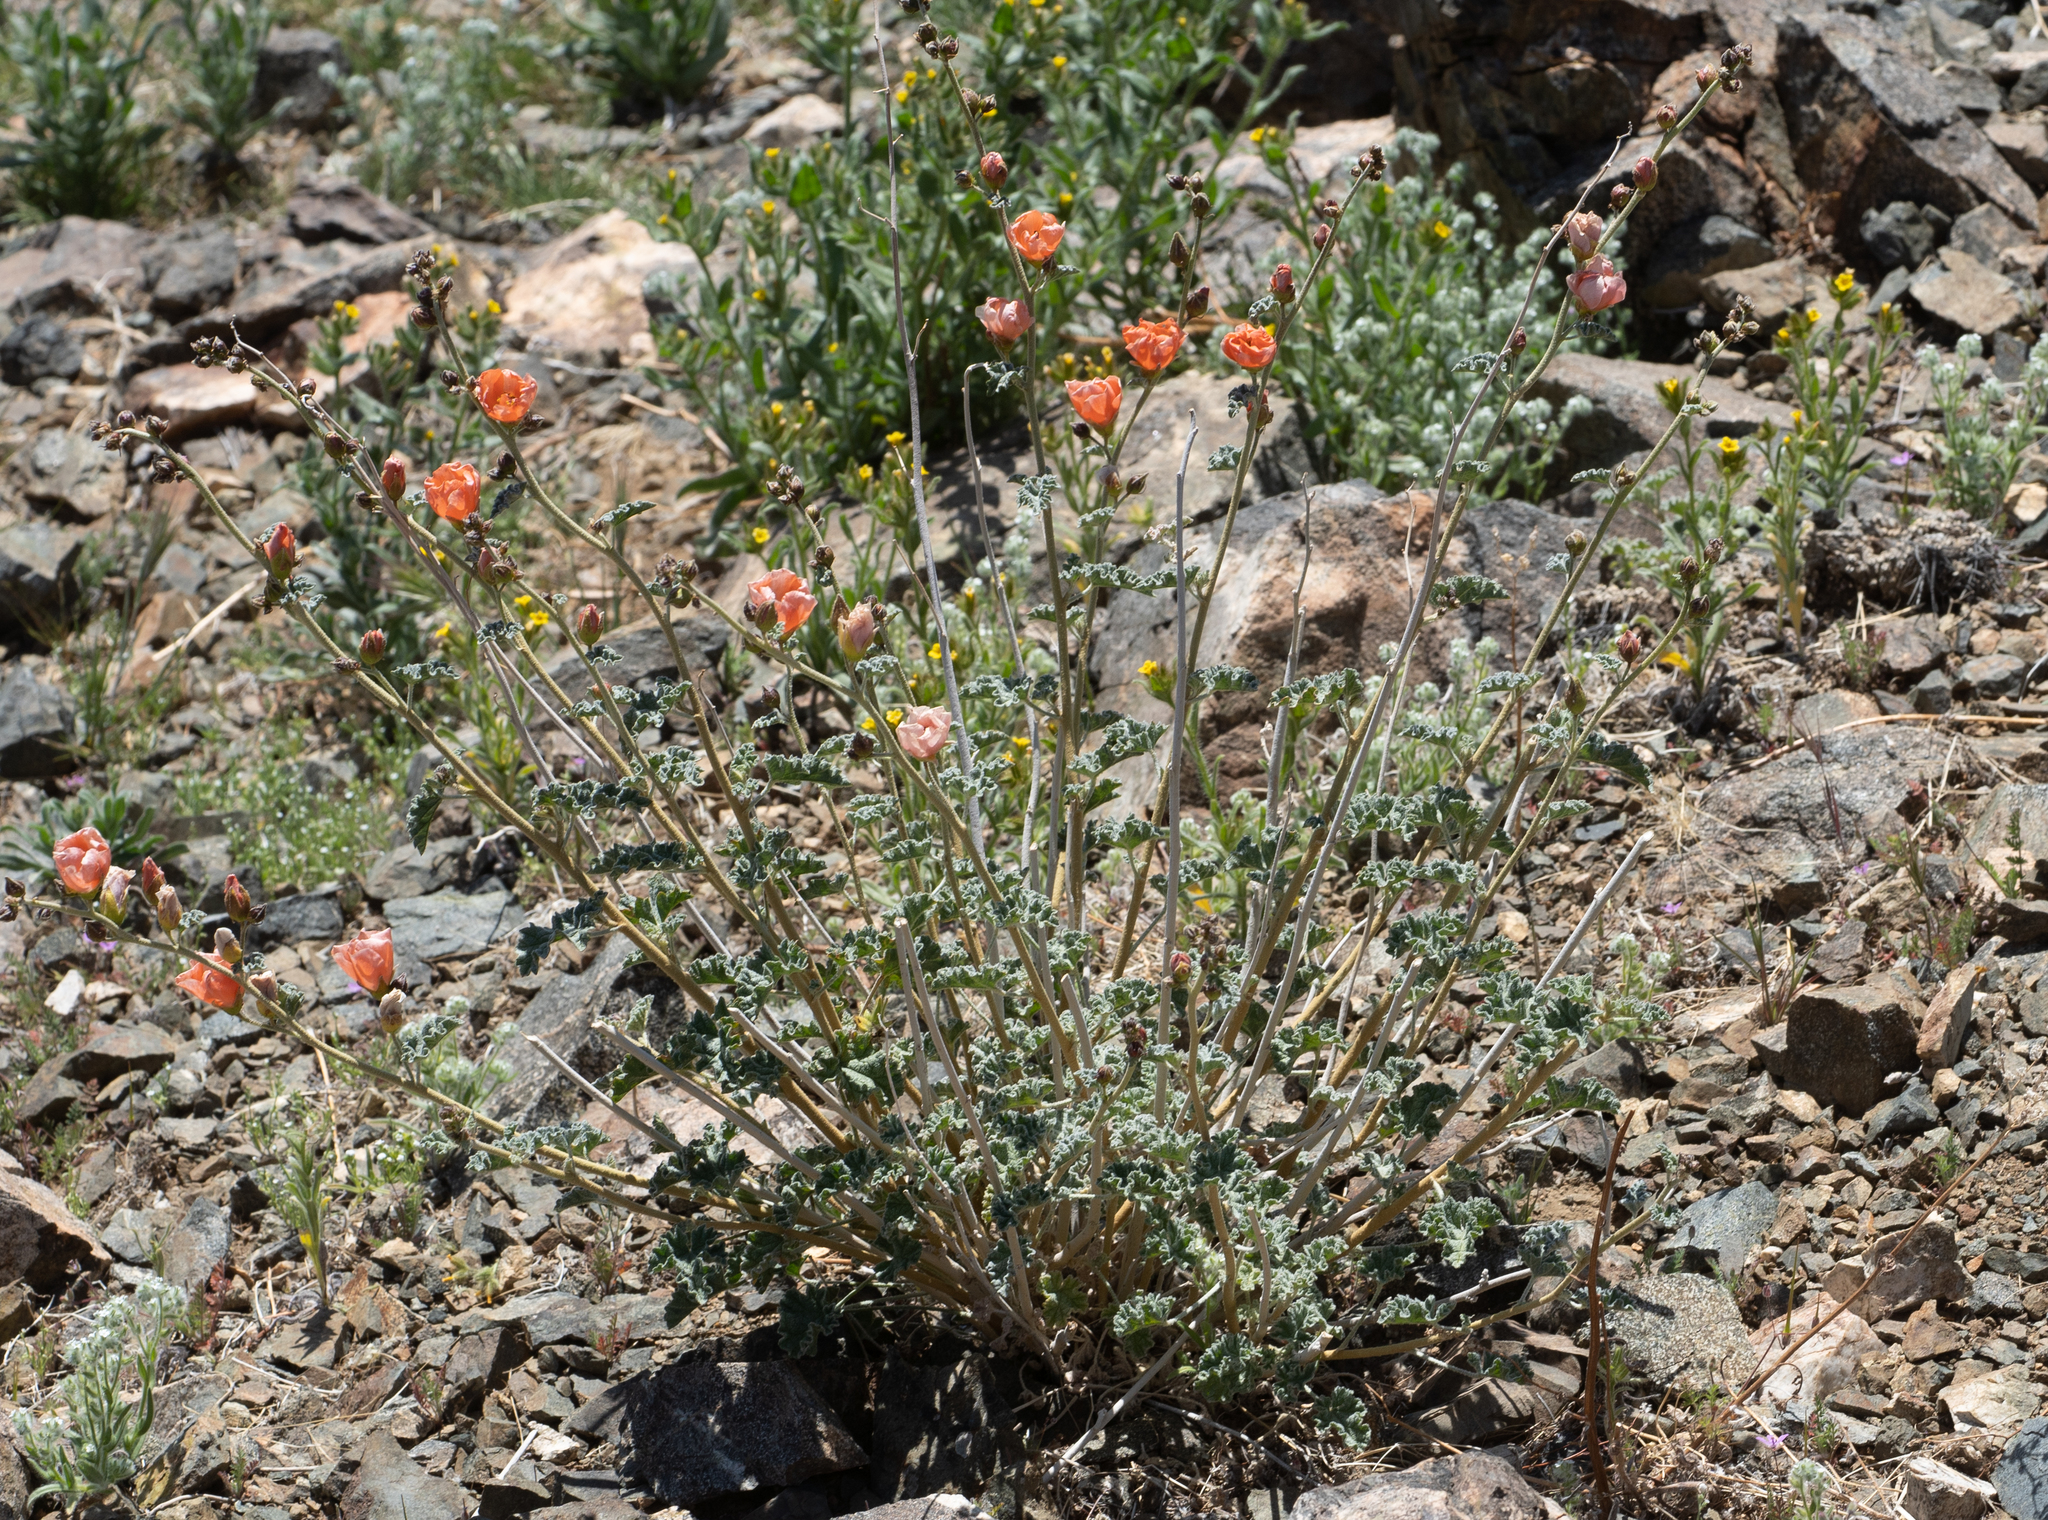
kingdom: Plantae
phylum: Tracheophyta
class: Magnoliopsida
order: Malvales
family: Malvaceae
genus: Sphaeralcea
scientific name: Sphaeralcea ambigua
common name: Apricot globe-mallow
